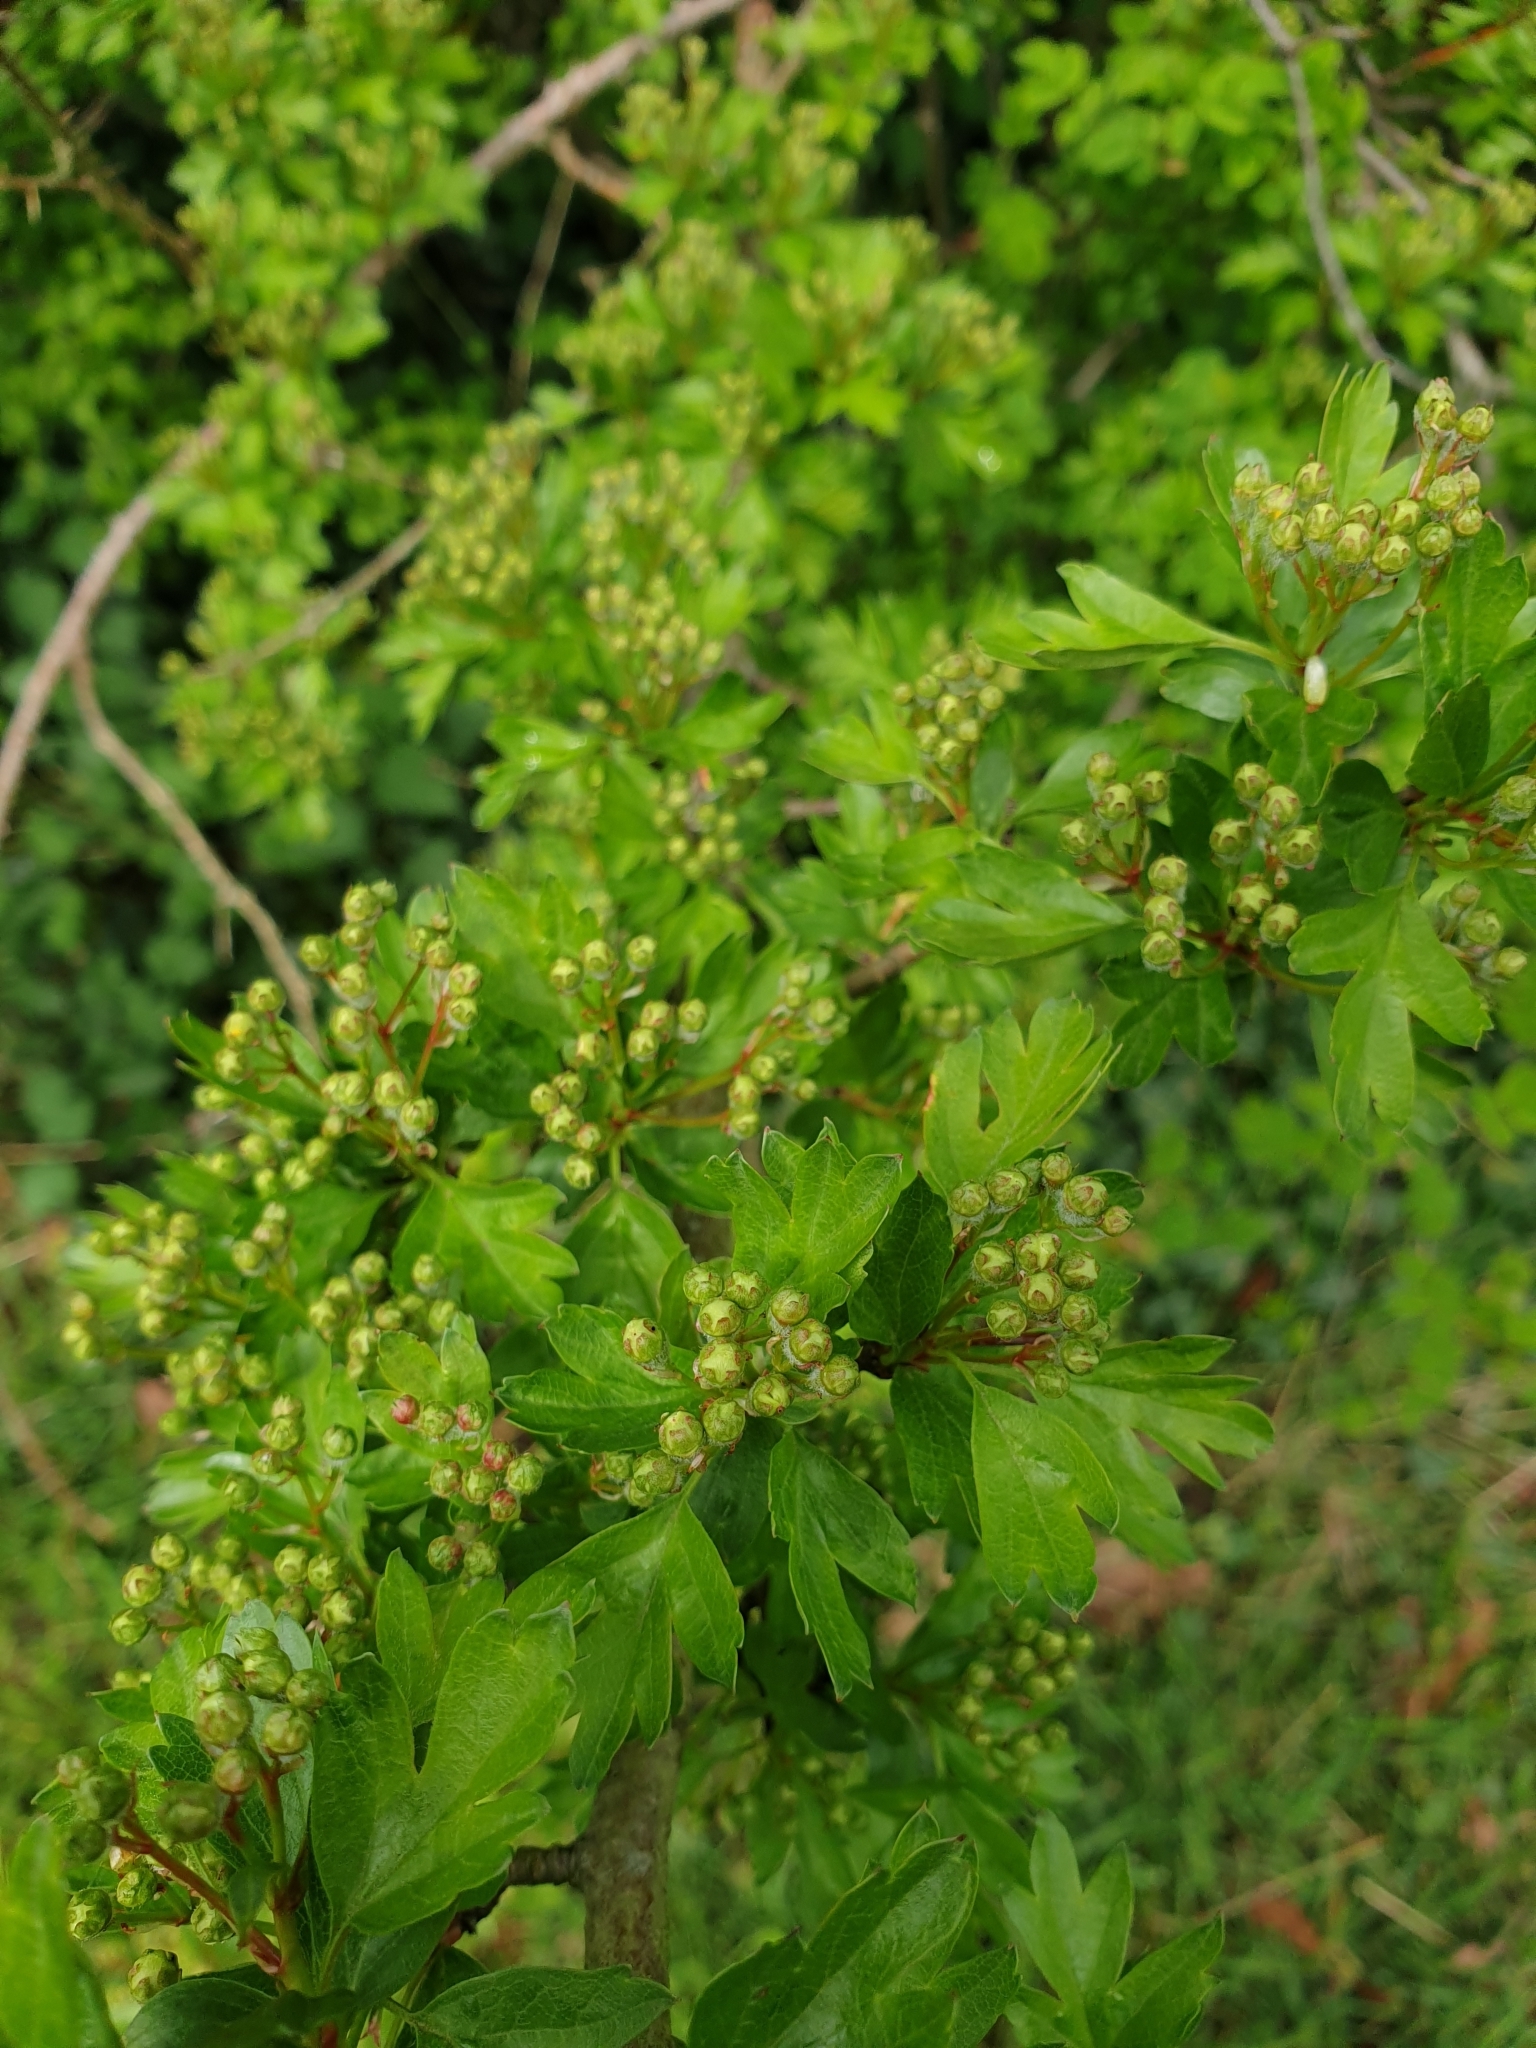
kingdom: Plantae
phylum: Tracheophyta
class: Magnoliopsida
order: Rosales
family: Rosaceae
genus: Crataegus
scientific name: Crataegus monogyna
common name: Hawthorn
